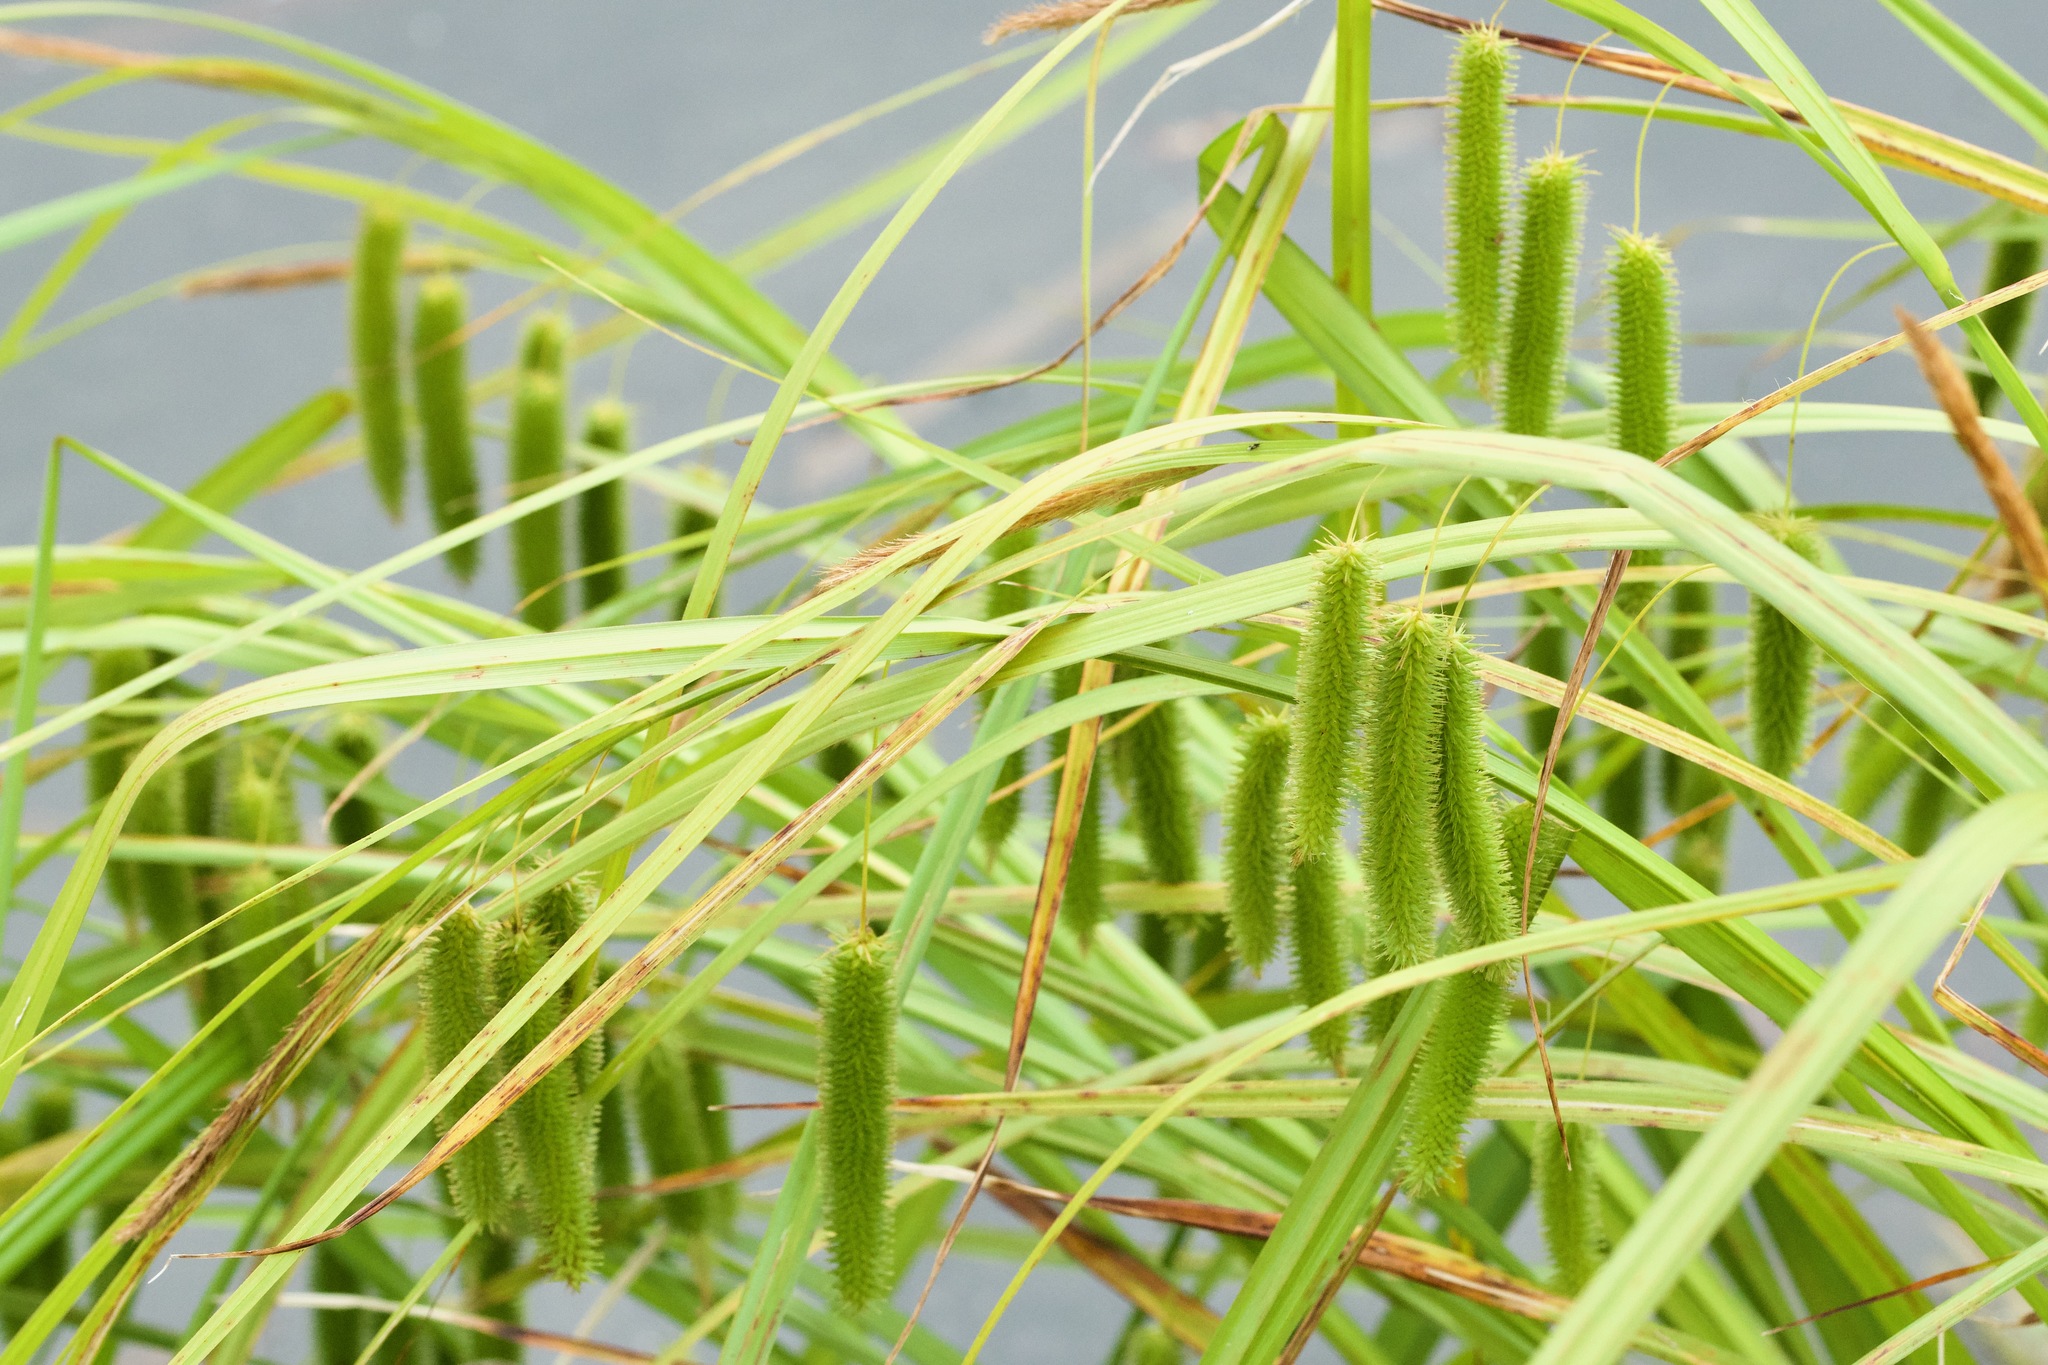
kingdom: Plantae
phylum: Tracheophyta
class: Liliopsida
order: Poales
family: Cyperaceae
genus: Carex
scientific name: Carex pseudocyperus
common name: Cyperus sedge
